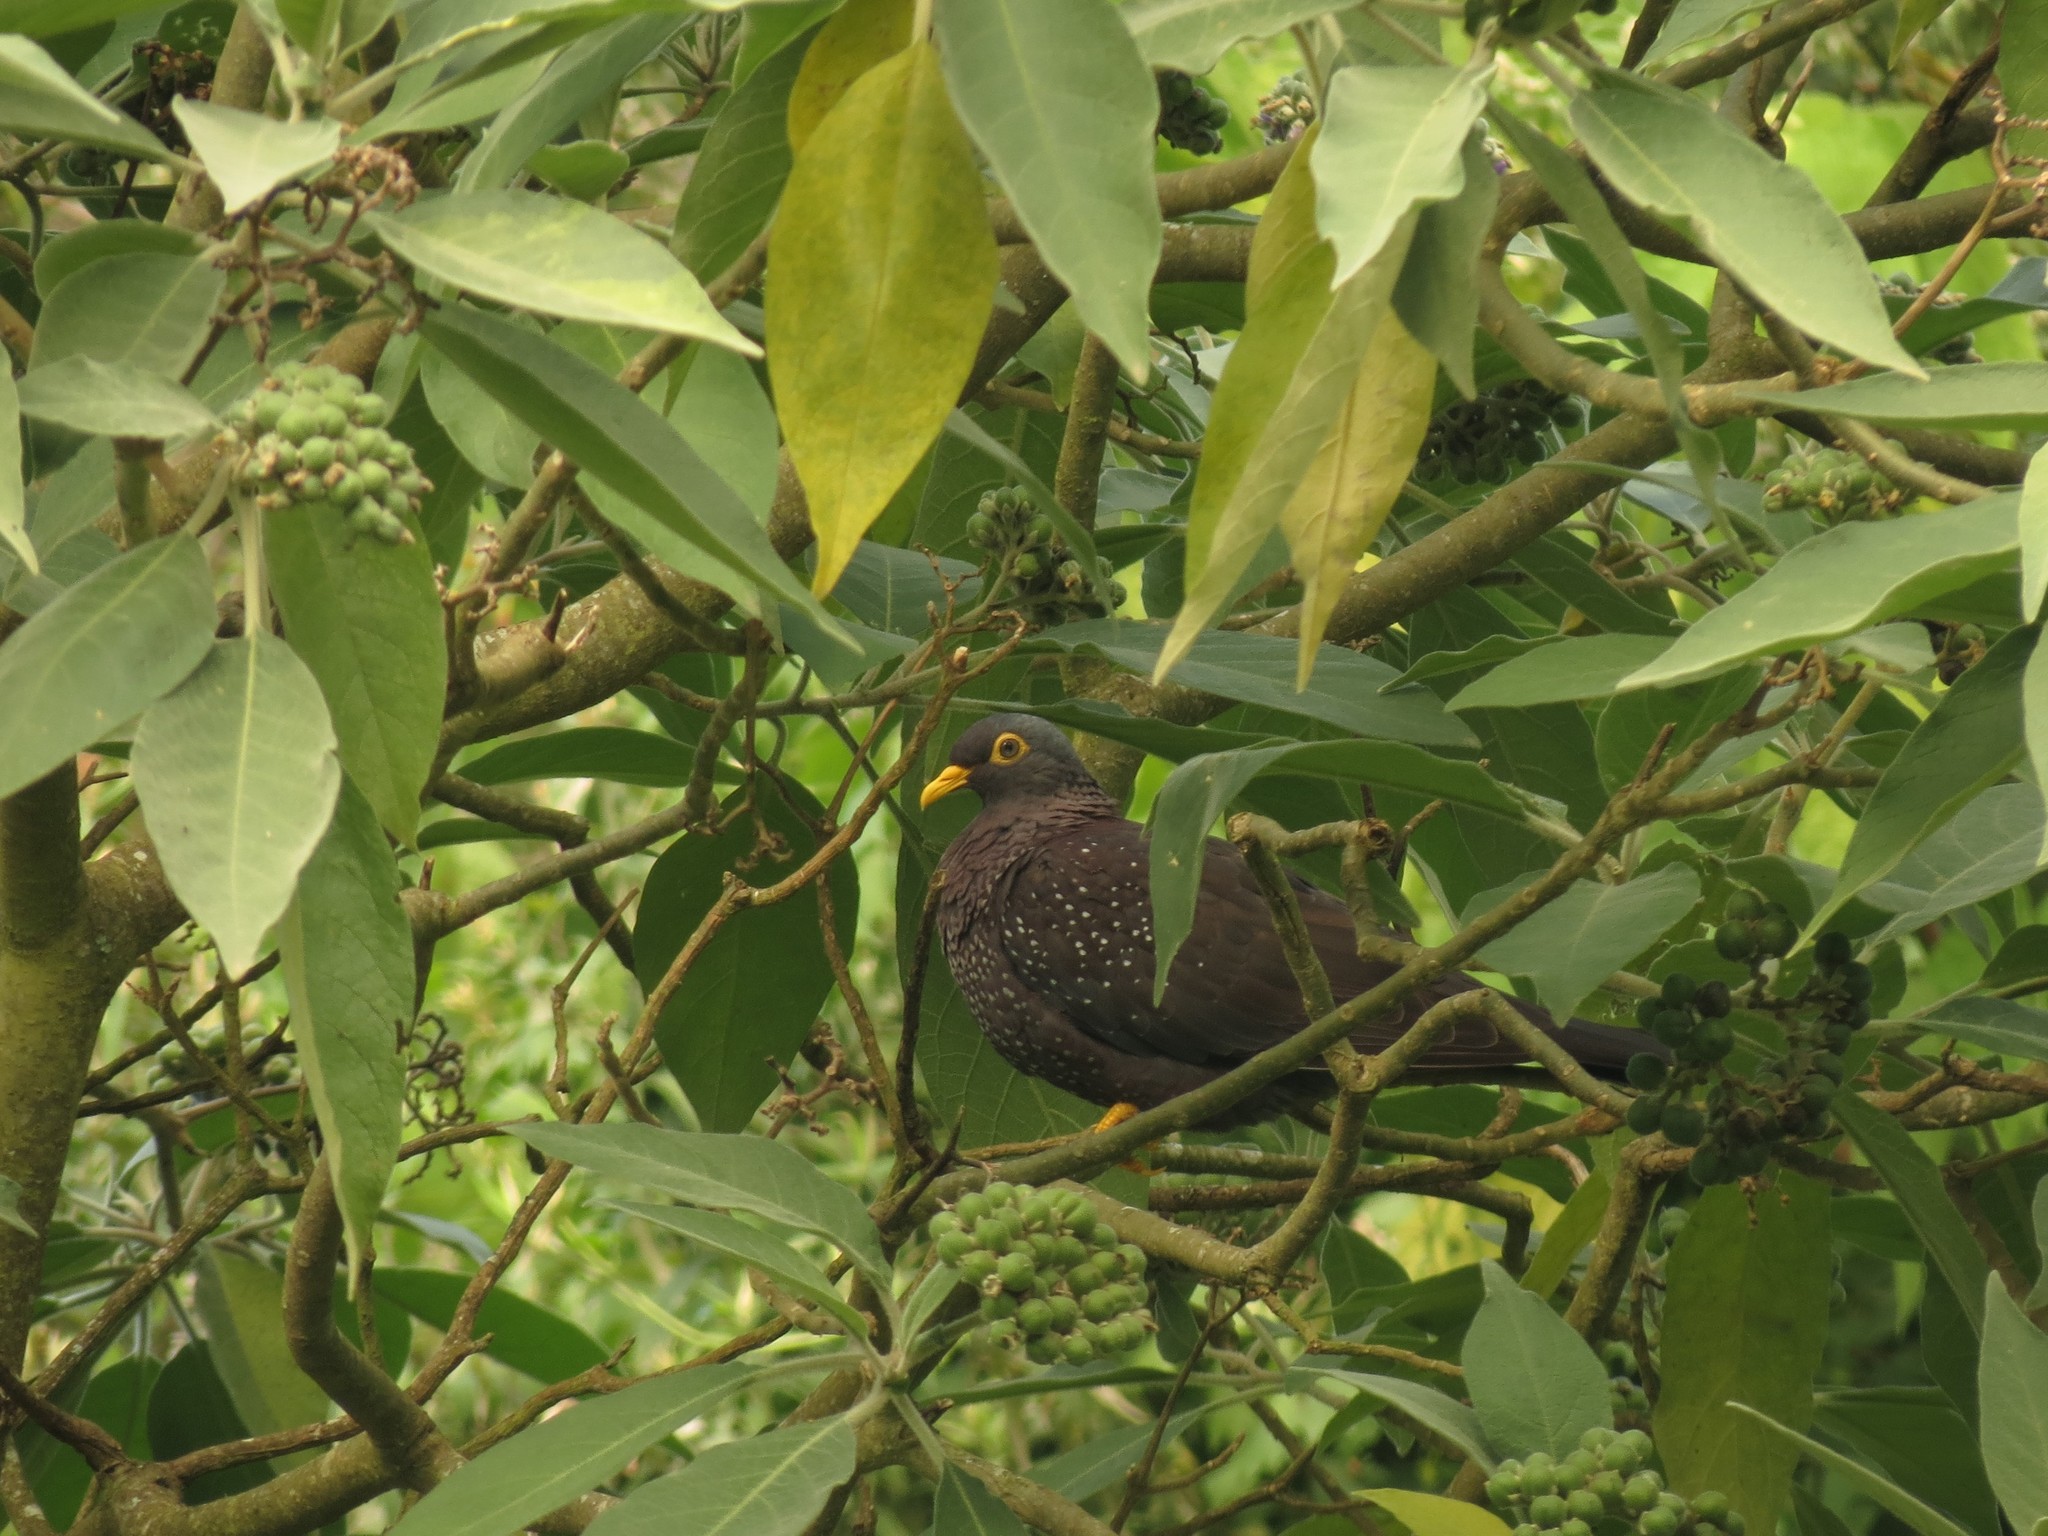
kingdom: Animalia
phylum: Chordata
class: Aves
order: Columbiformes
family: Columbidae
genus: Columba
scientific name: Columba arquatrix
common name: African olive pigeon
